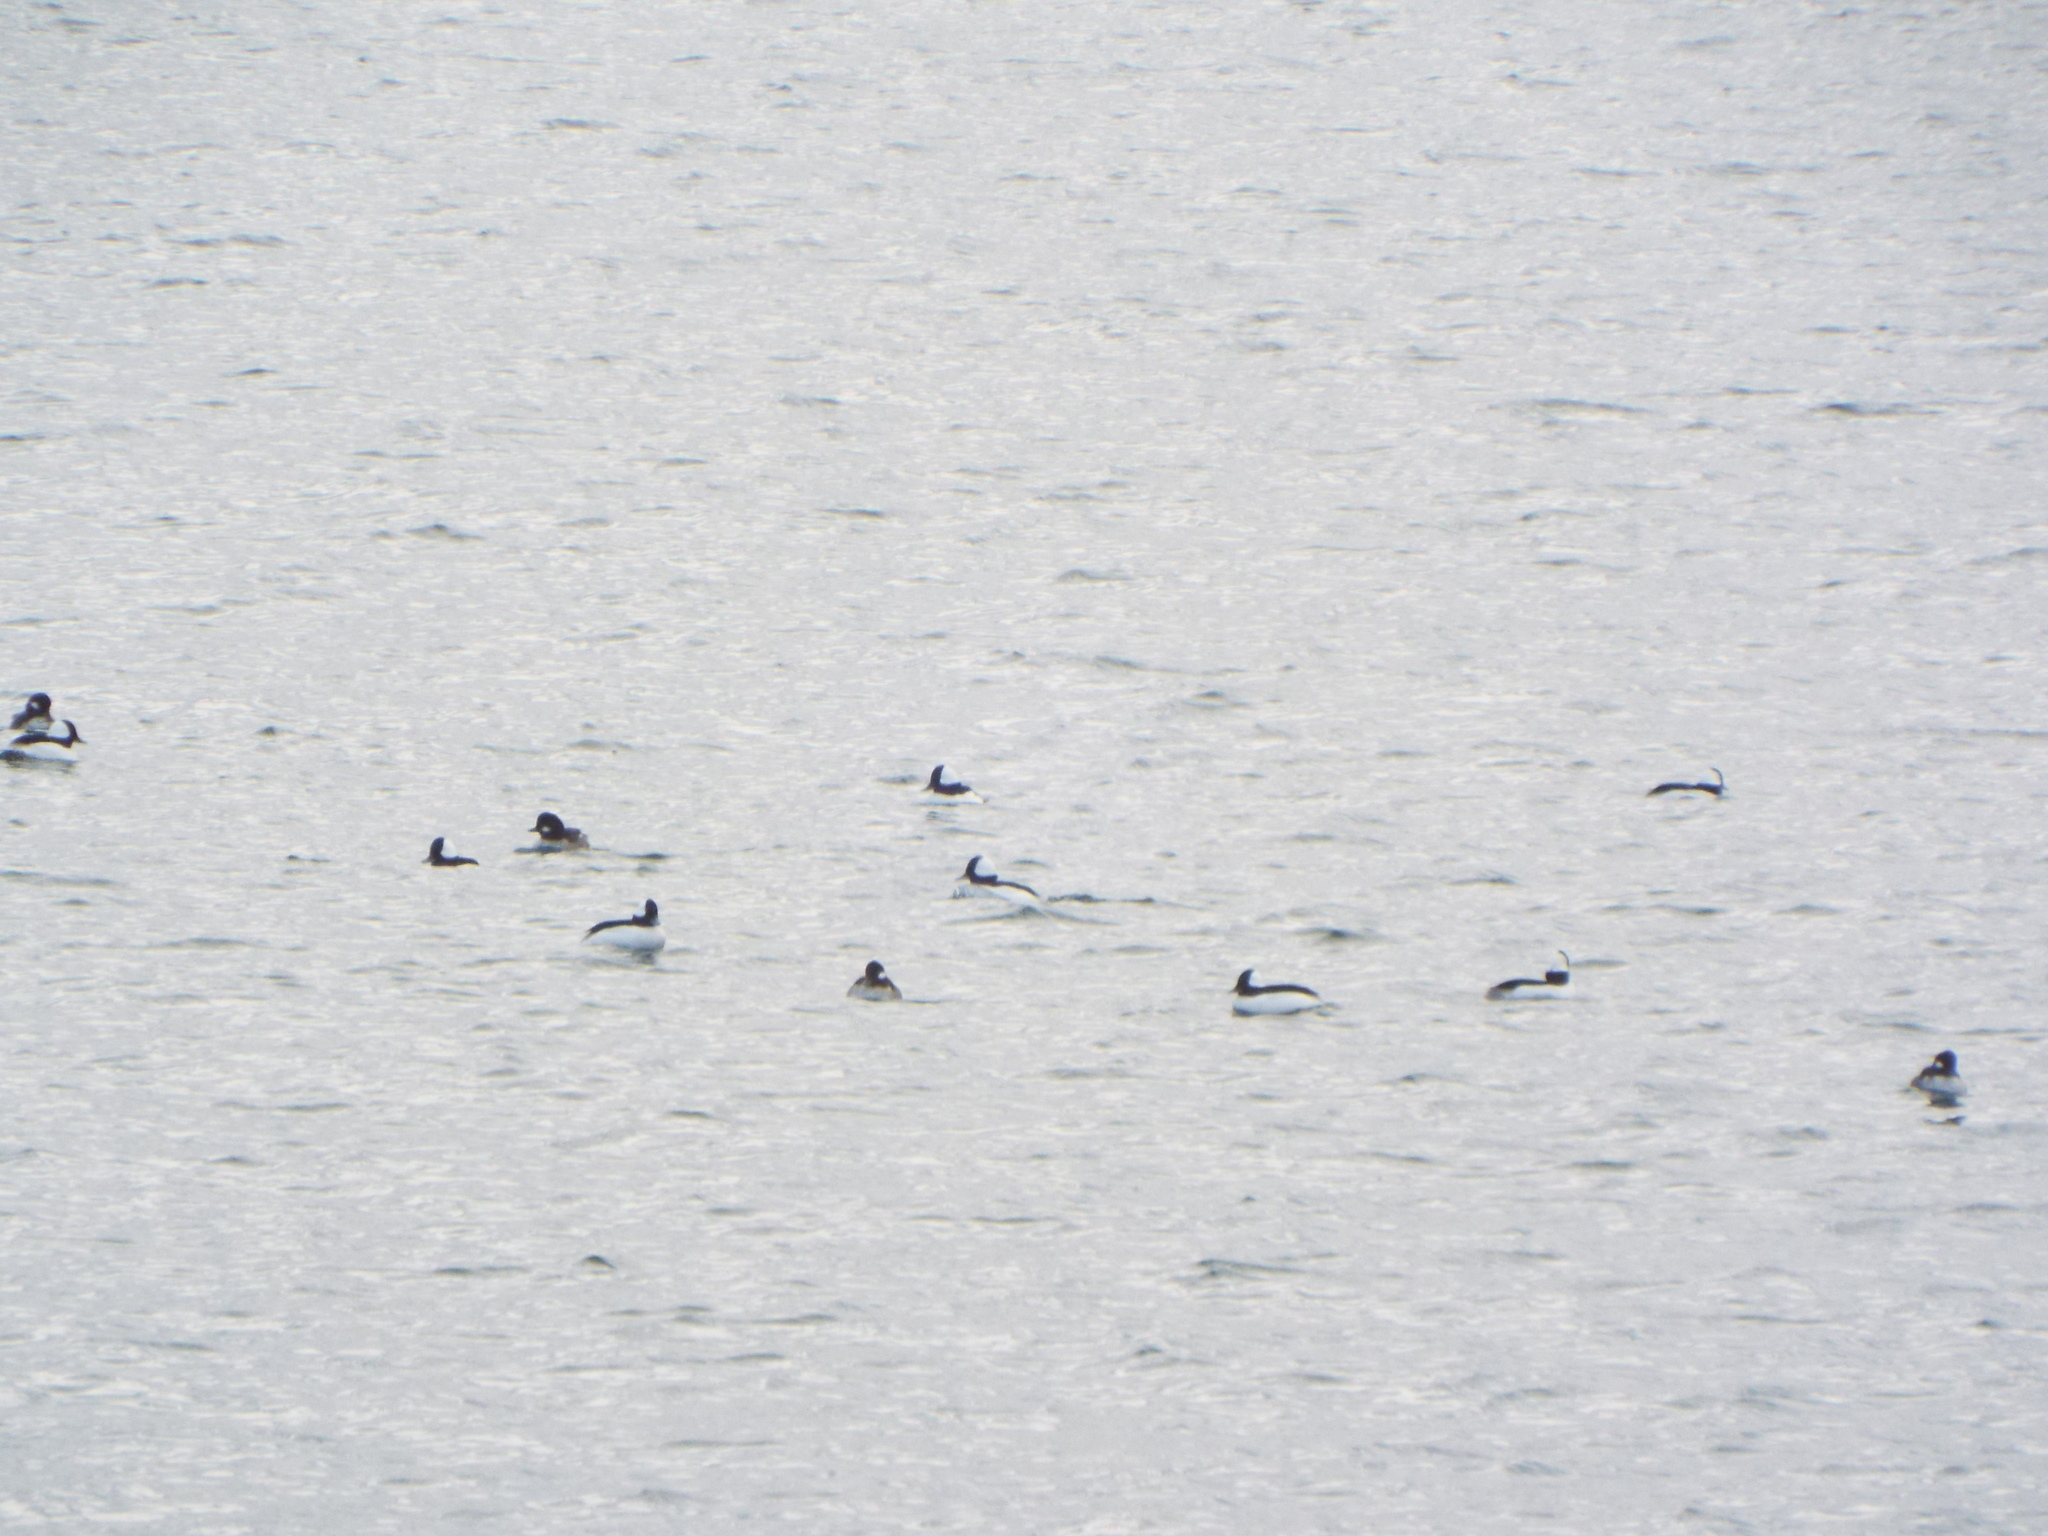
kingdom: Animalia
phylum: Chordata
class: Aves
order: Anseriformes
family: Anatidae
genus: Bucephala
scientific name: Bucephala albeola
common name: Bufflehead
